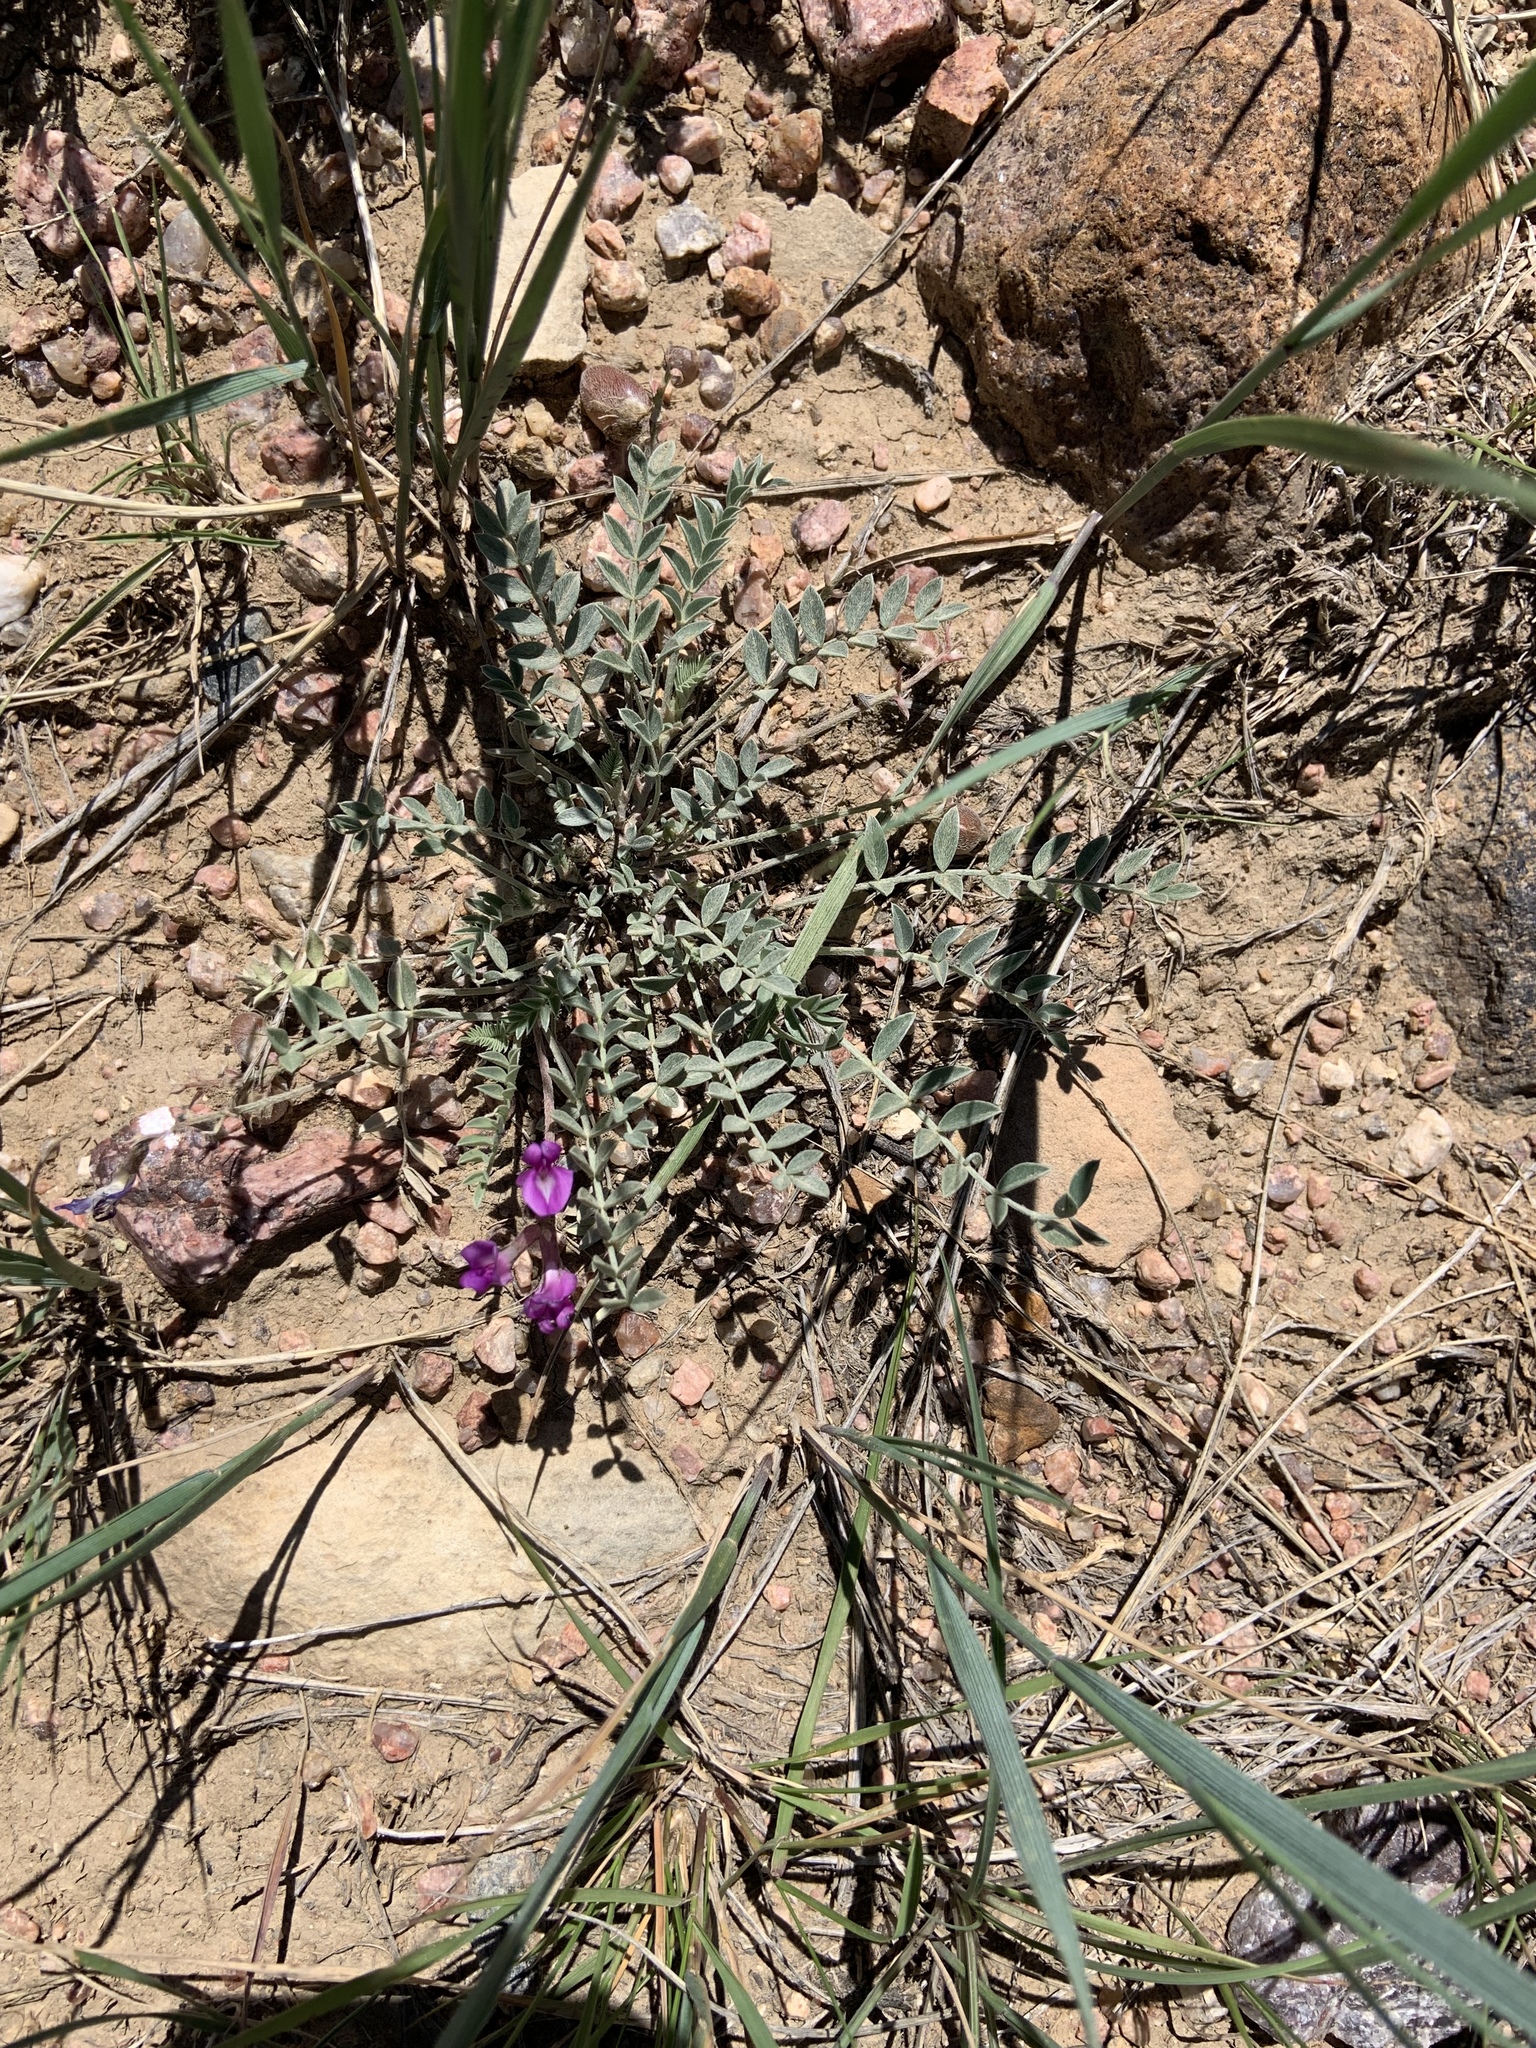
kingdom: Plantae
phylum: Tracheophyta
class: Magnoliopsida
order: Fabales
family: Fabaceae
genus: Astragalus
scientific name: Astragalus missouriensis
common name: Missouri milk-vetch
